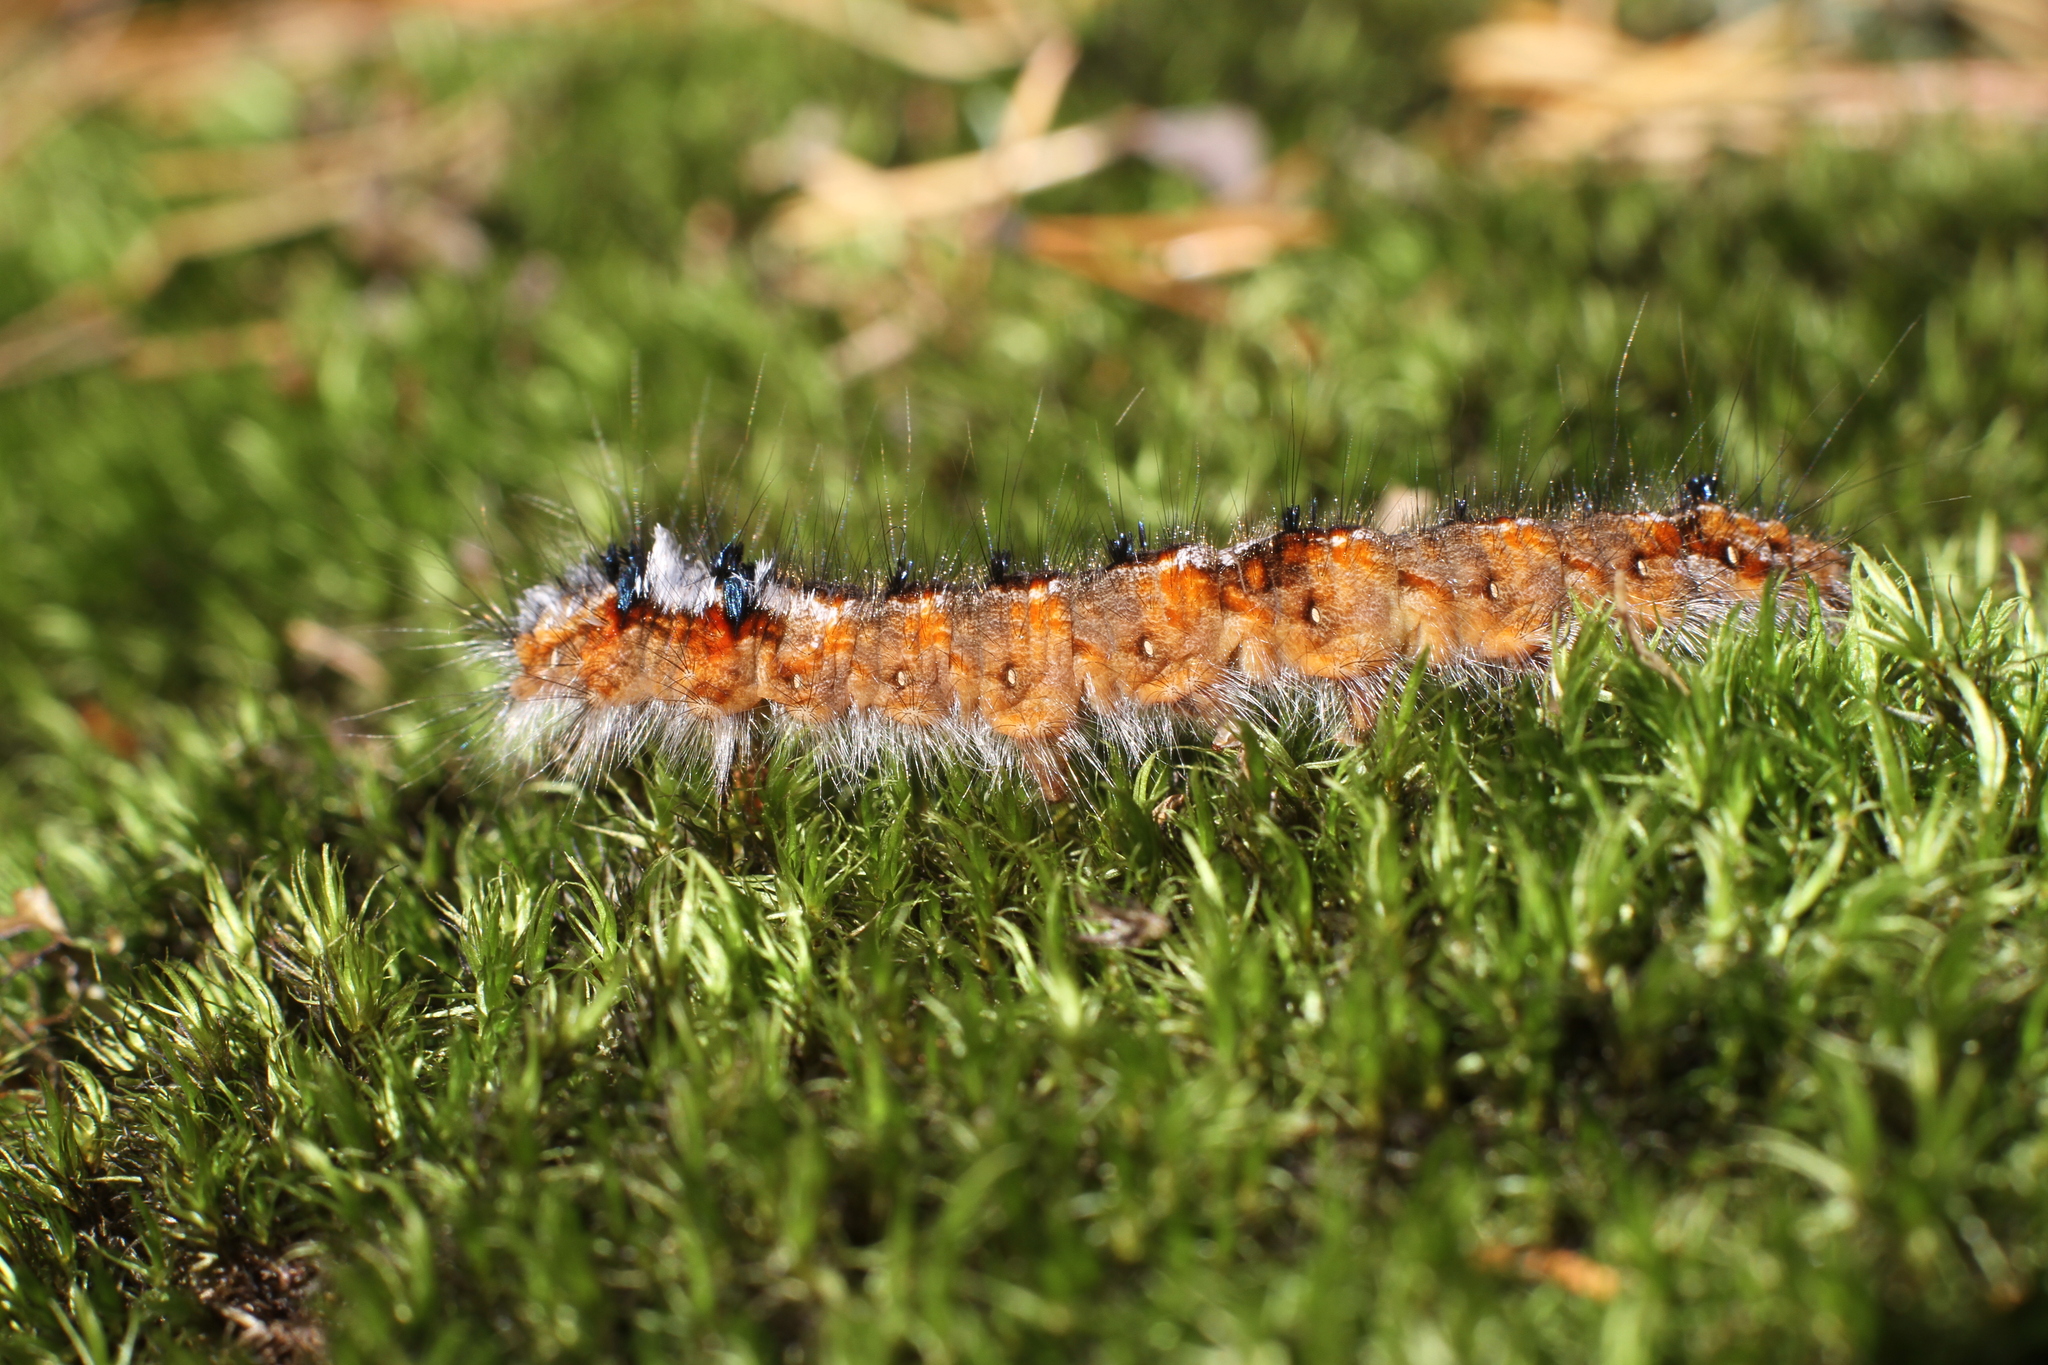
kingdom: Animalia
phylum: Arthropoda
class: Insecta
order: Lepidoptera
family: Lasiocampidae
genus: Dendrolimus
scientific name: Dendrolimus pini
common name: Pine-tree lappet
